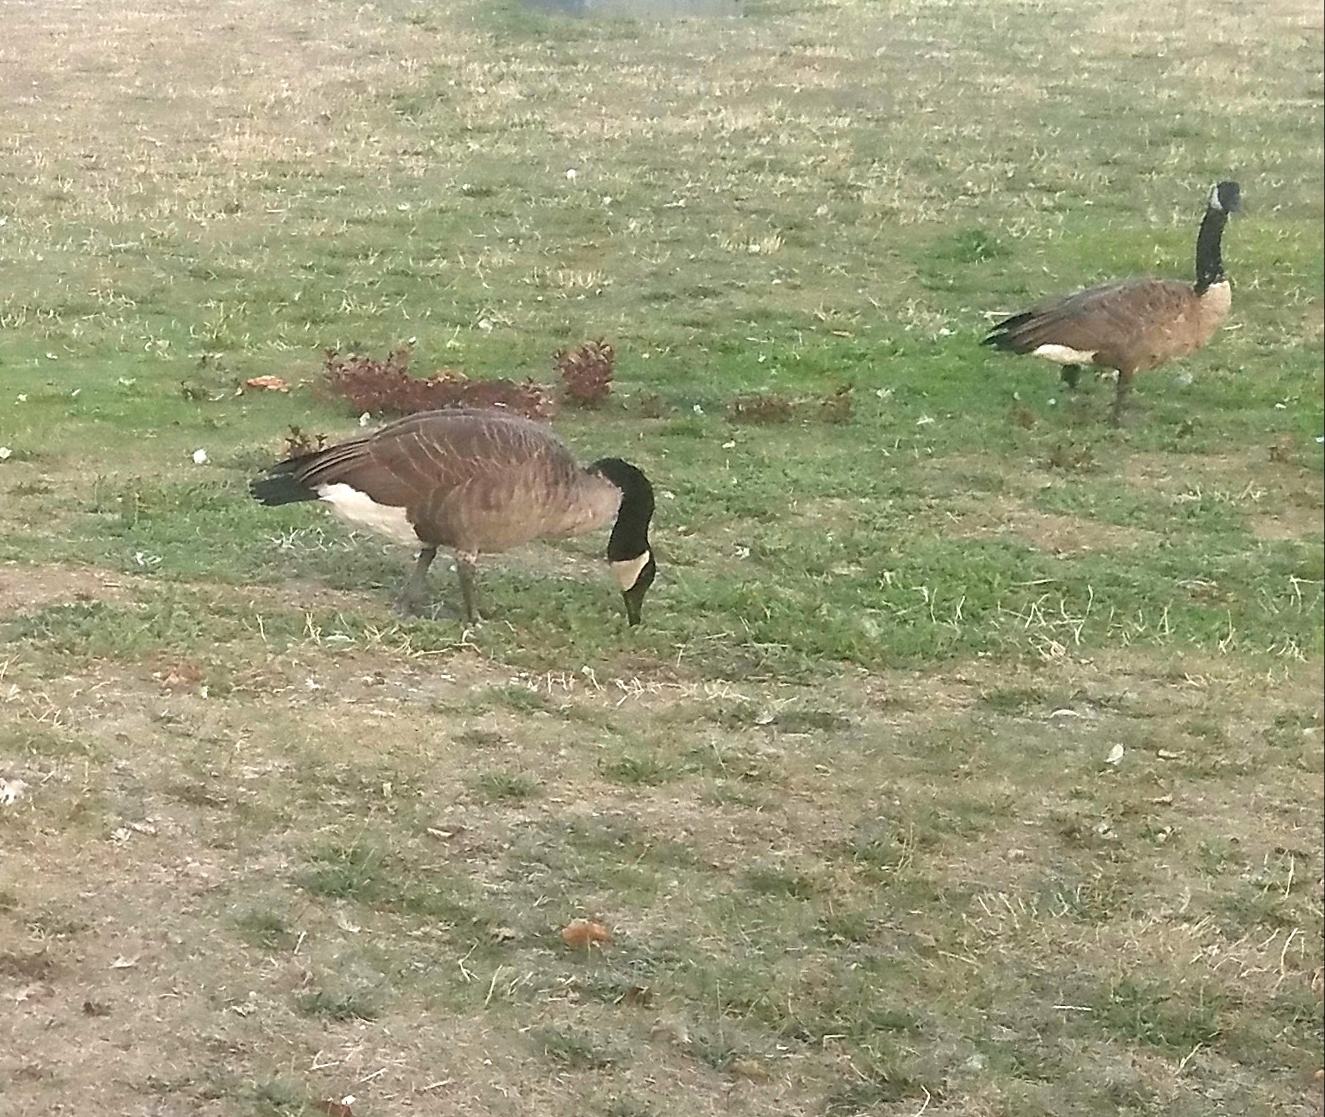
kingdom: Animalia
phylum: Chordata
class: Aves
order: Anseriformes
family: Anatidae
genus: Branta
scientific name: Branta canadensis
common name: Canada goose
